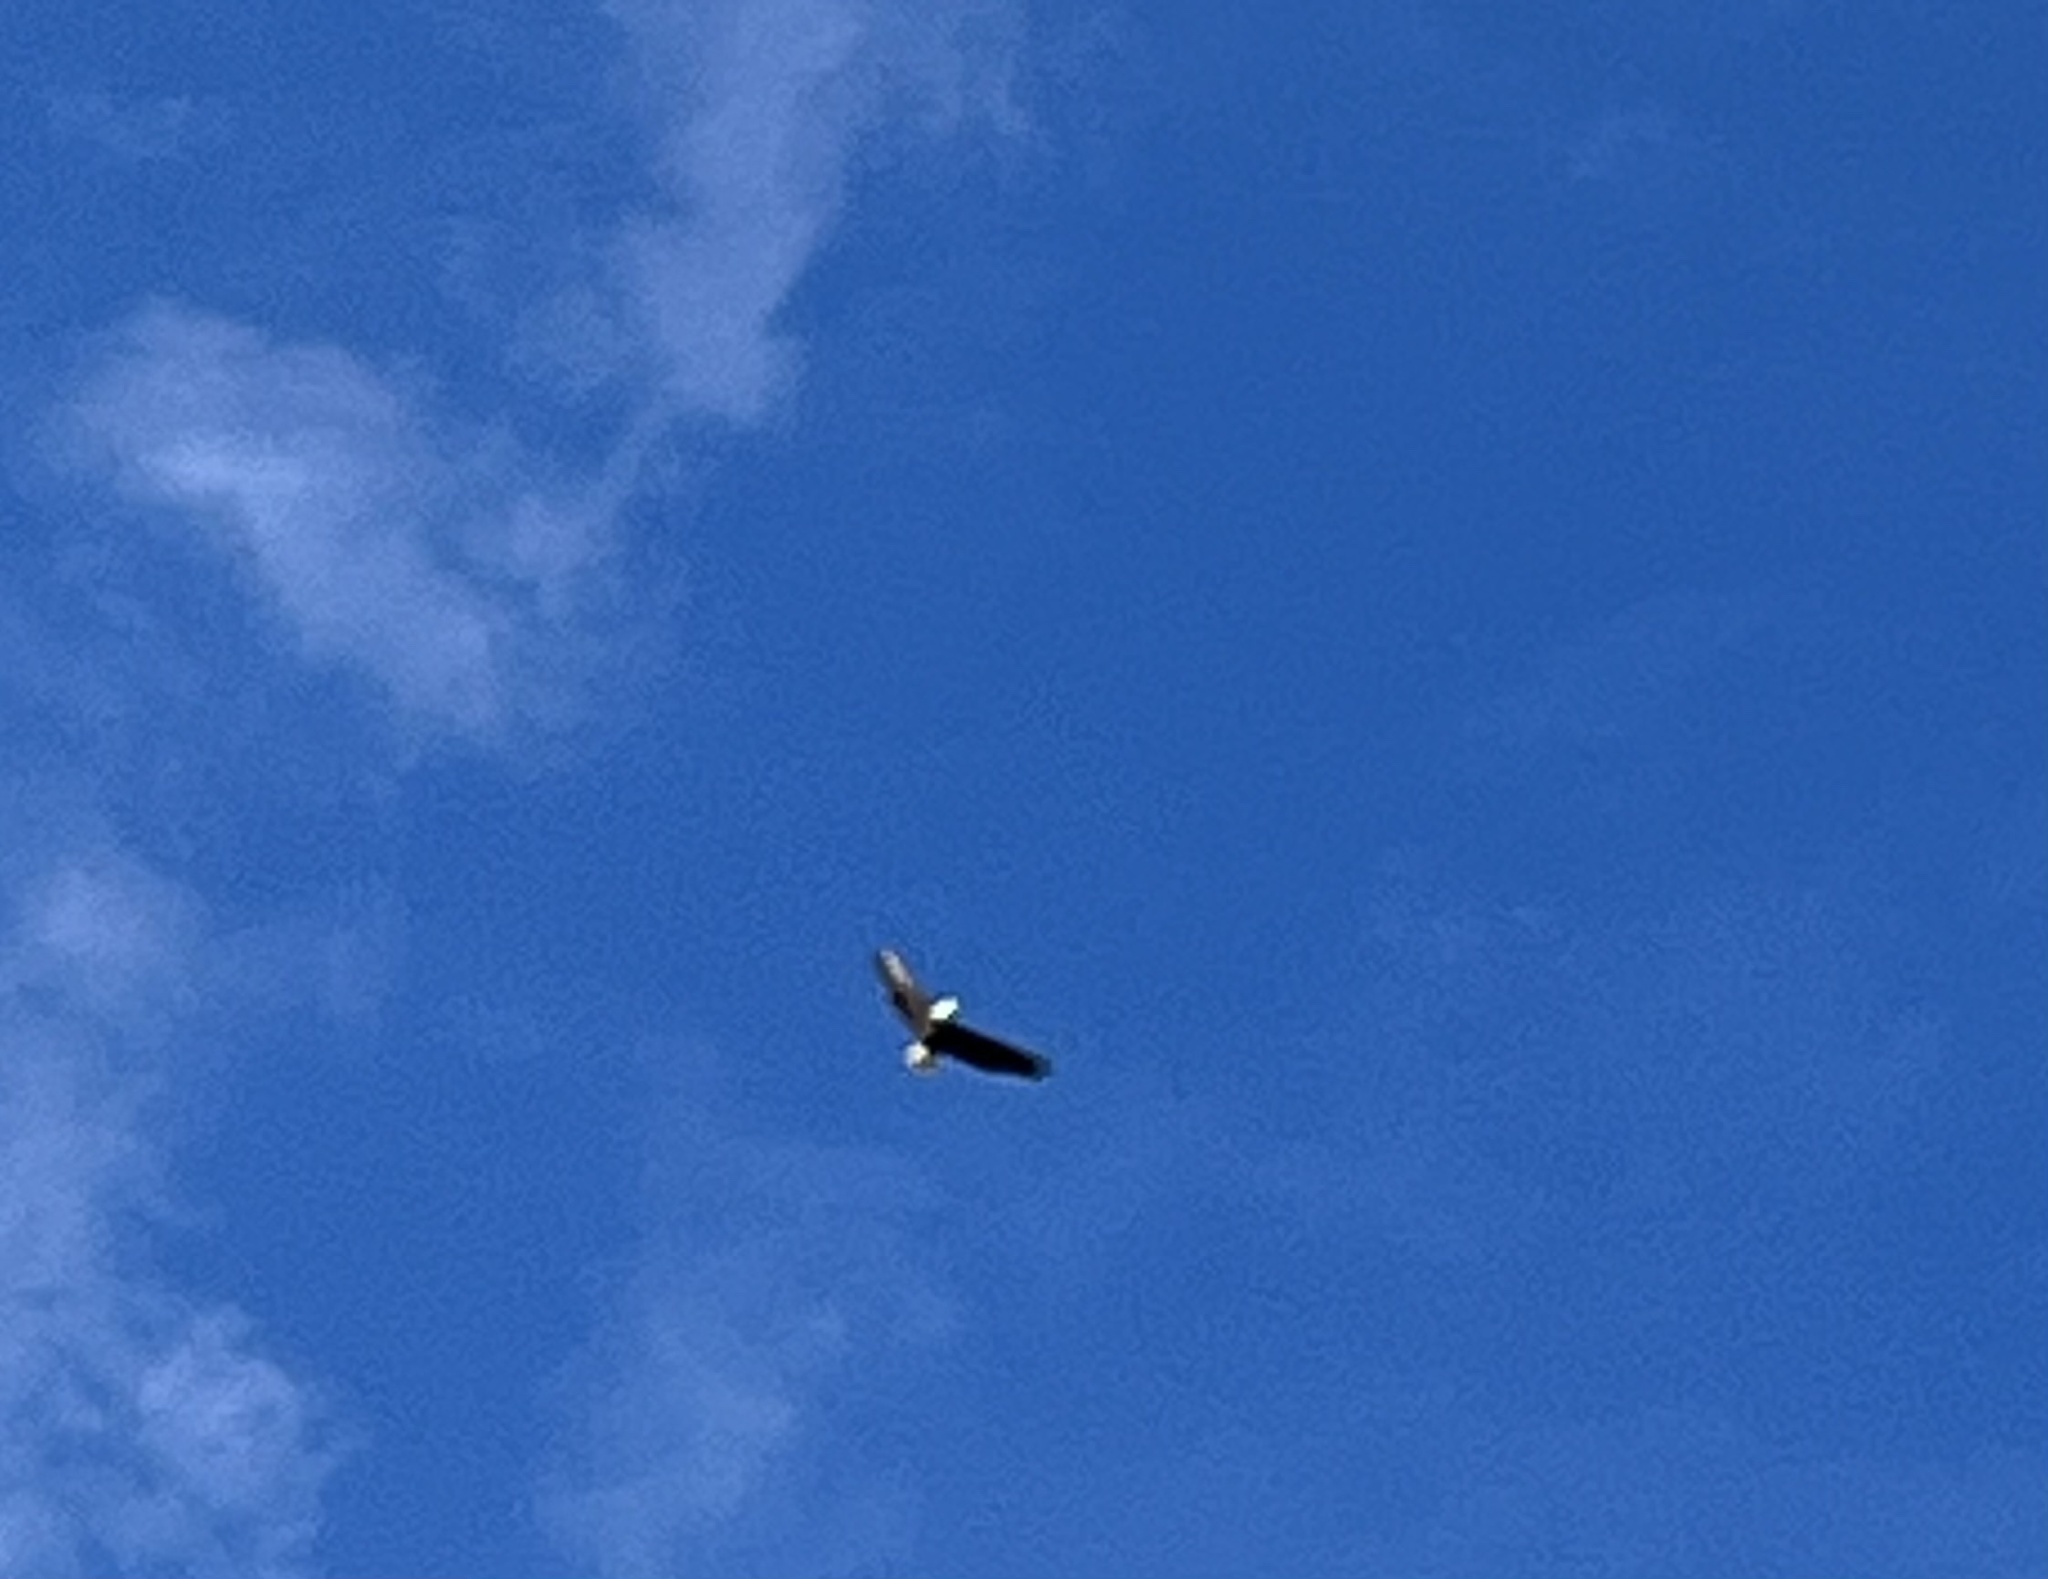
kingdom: Animalia
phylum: Chordata
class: Aves
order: Accipitriformes
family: Accipitridae
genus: Haliaeetus
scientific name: Haliaeetus leucocephalus
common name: Bald eagle
